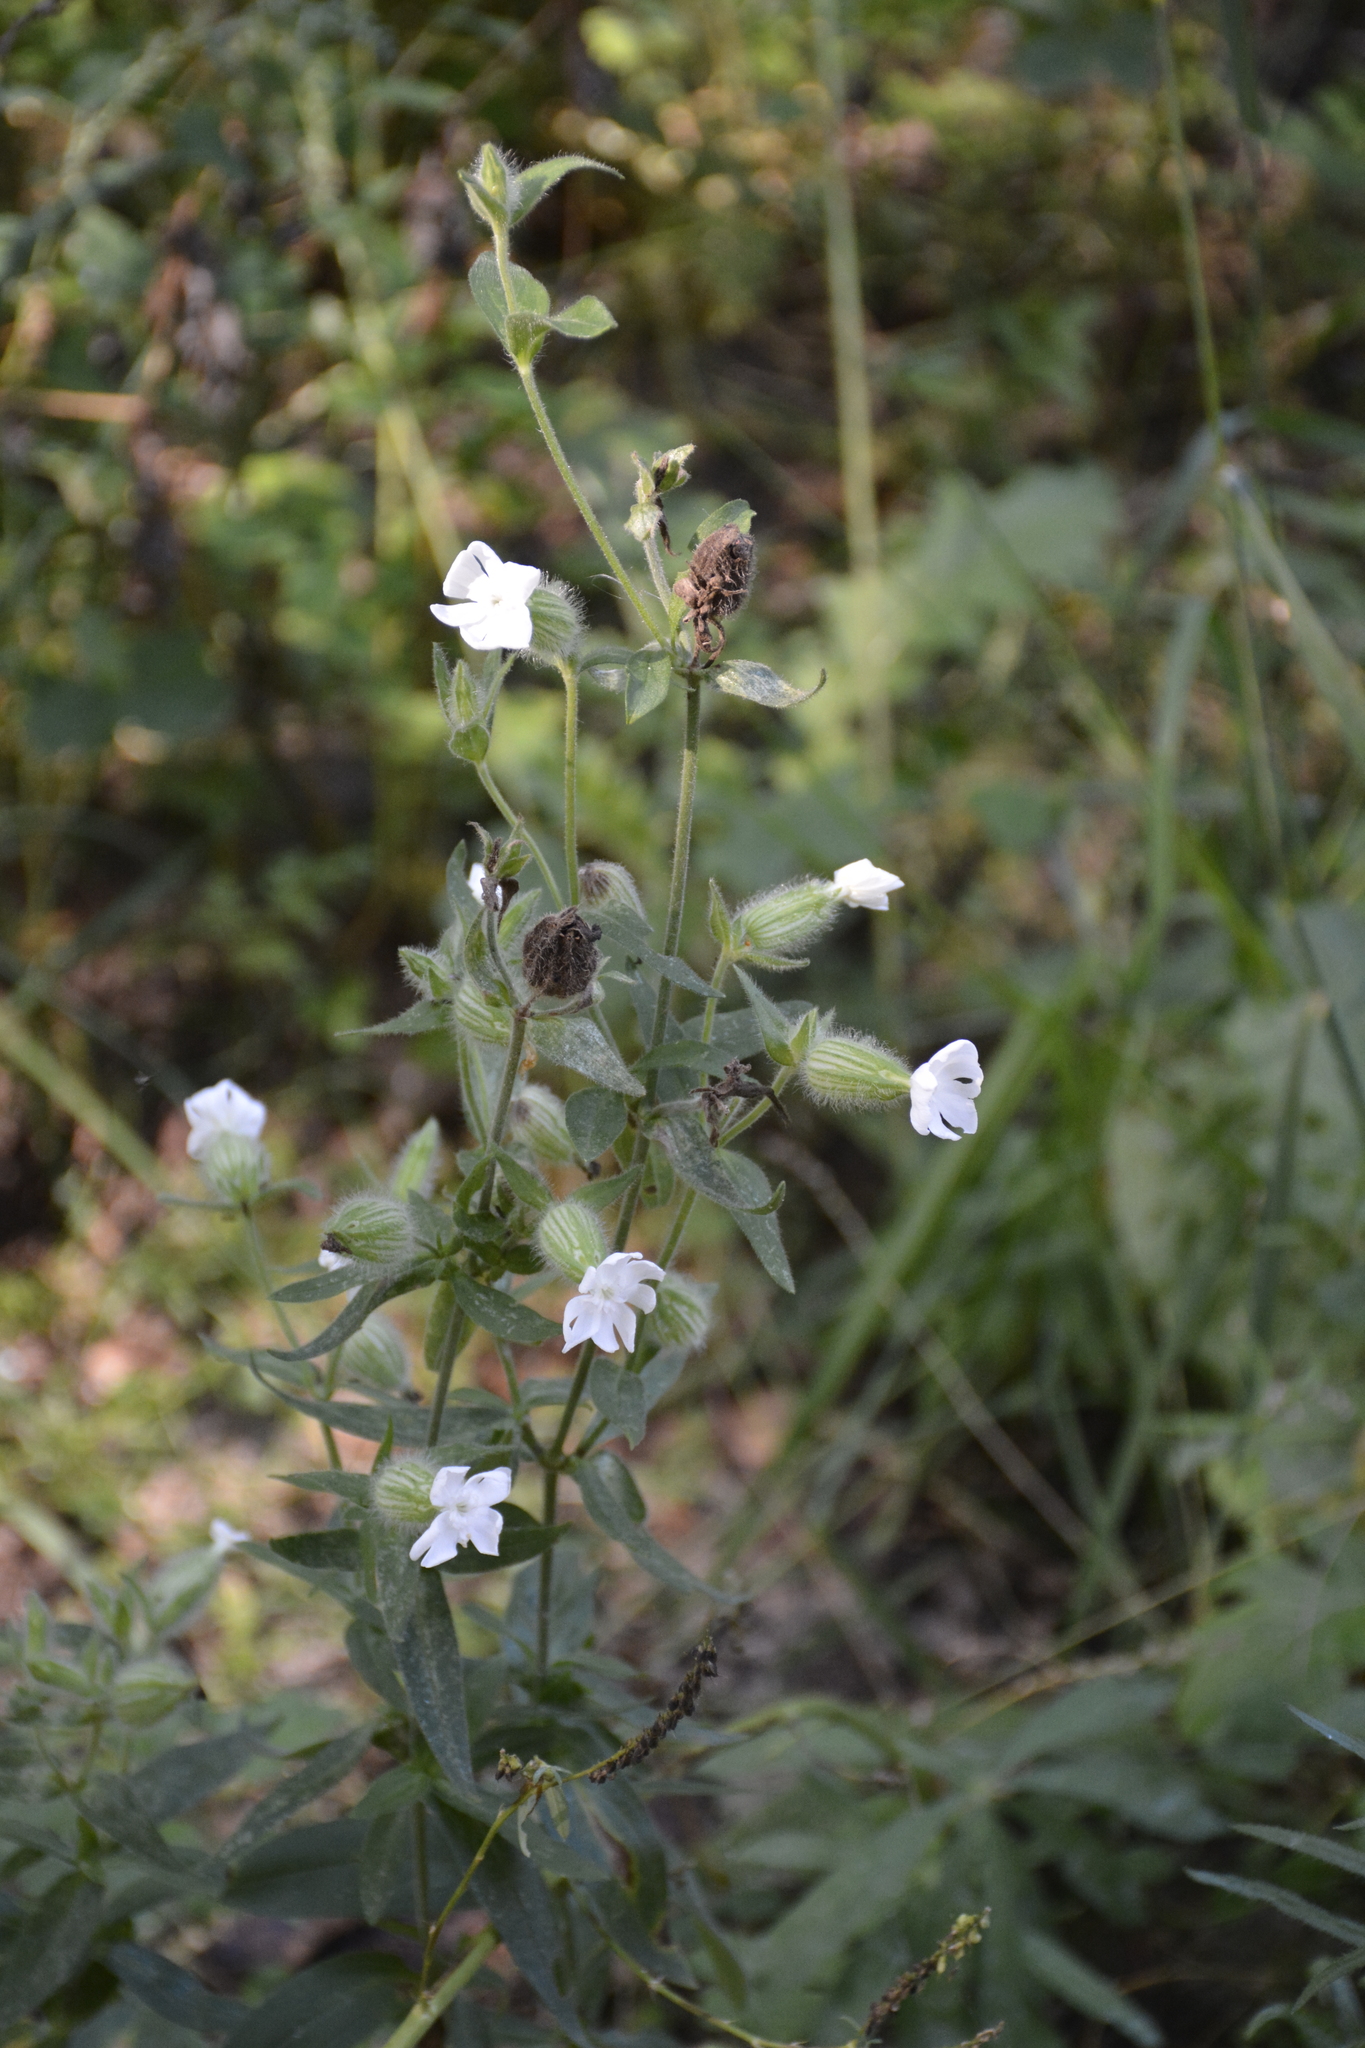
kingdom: Plantae
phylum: Tracheophyta
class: Magnoliopsida
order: Caryophyllales
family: Caryophyllaceae
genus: Silene
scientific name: Silene latifolia
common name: White campion
